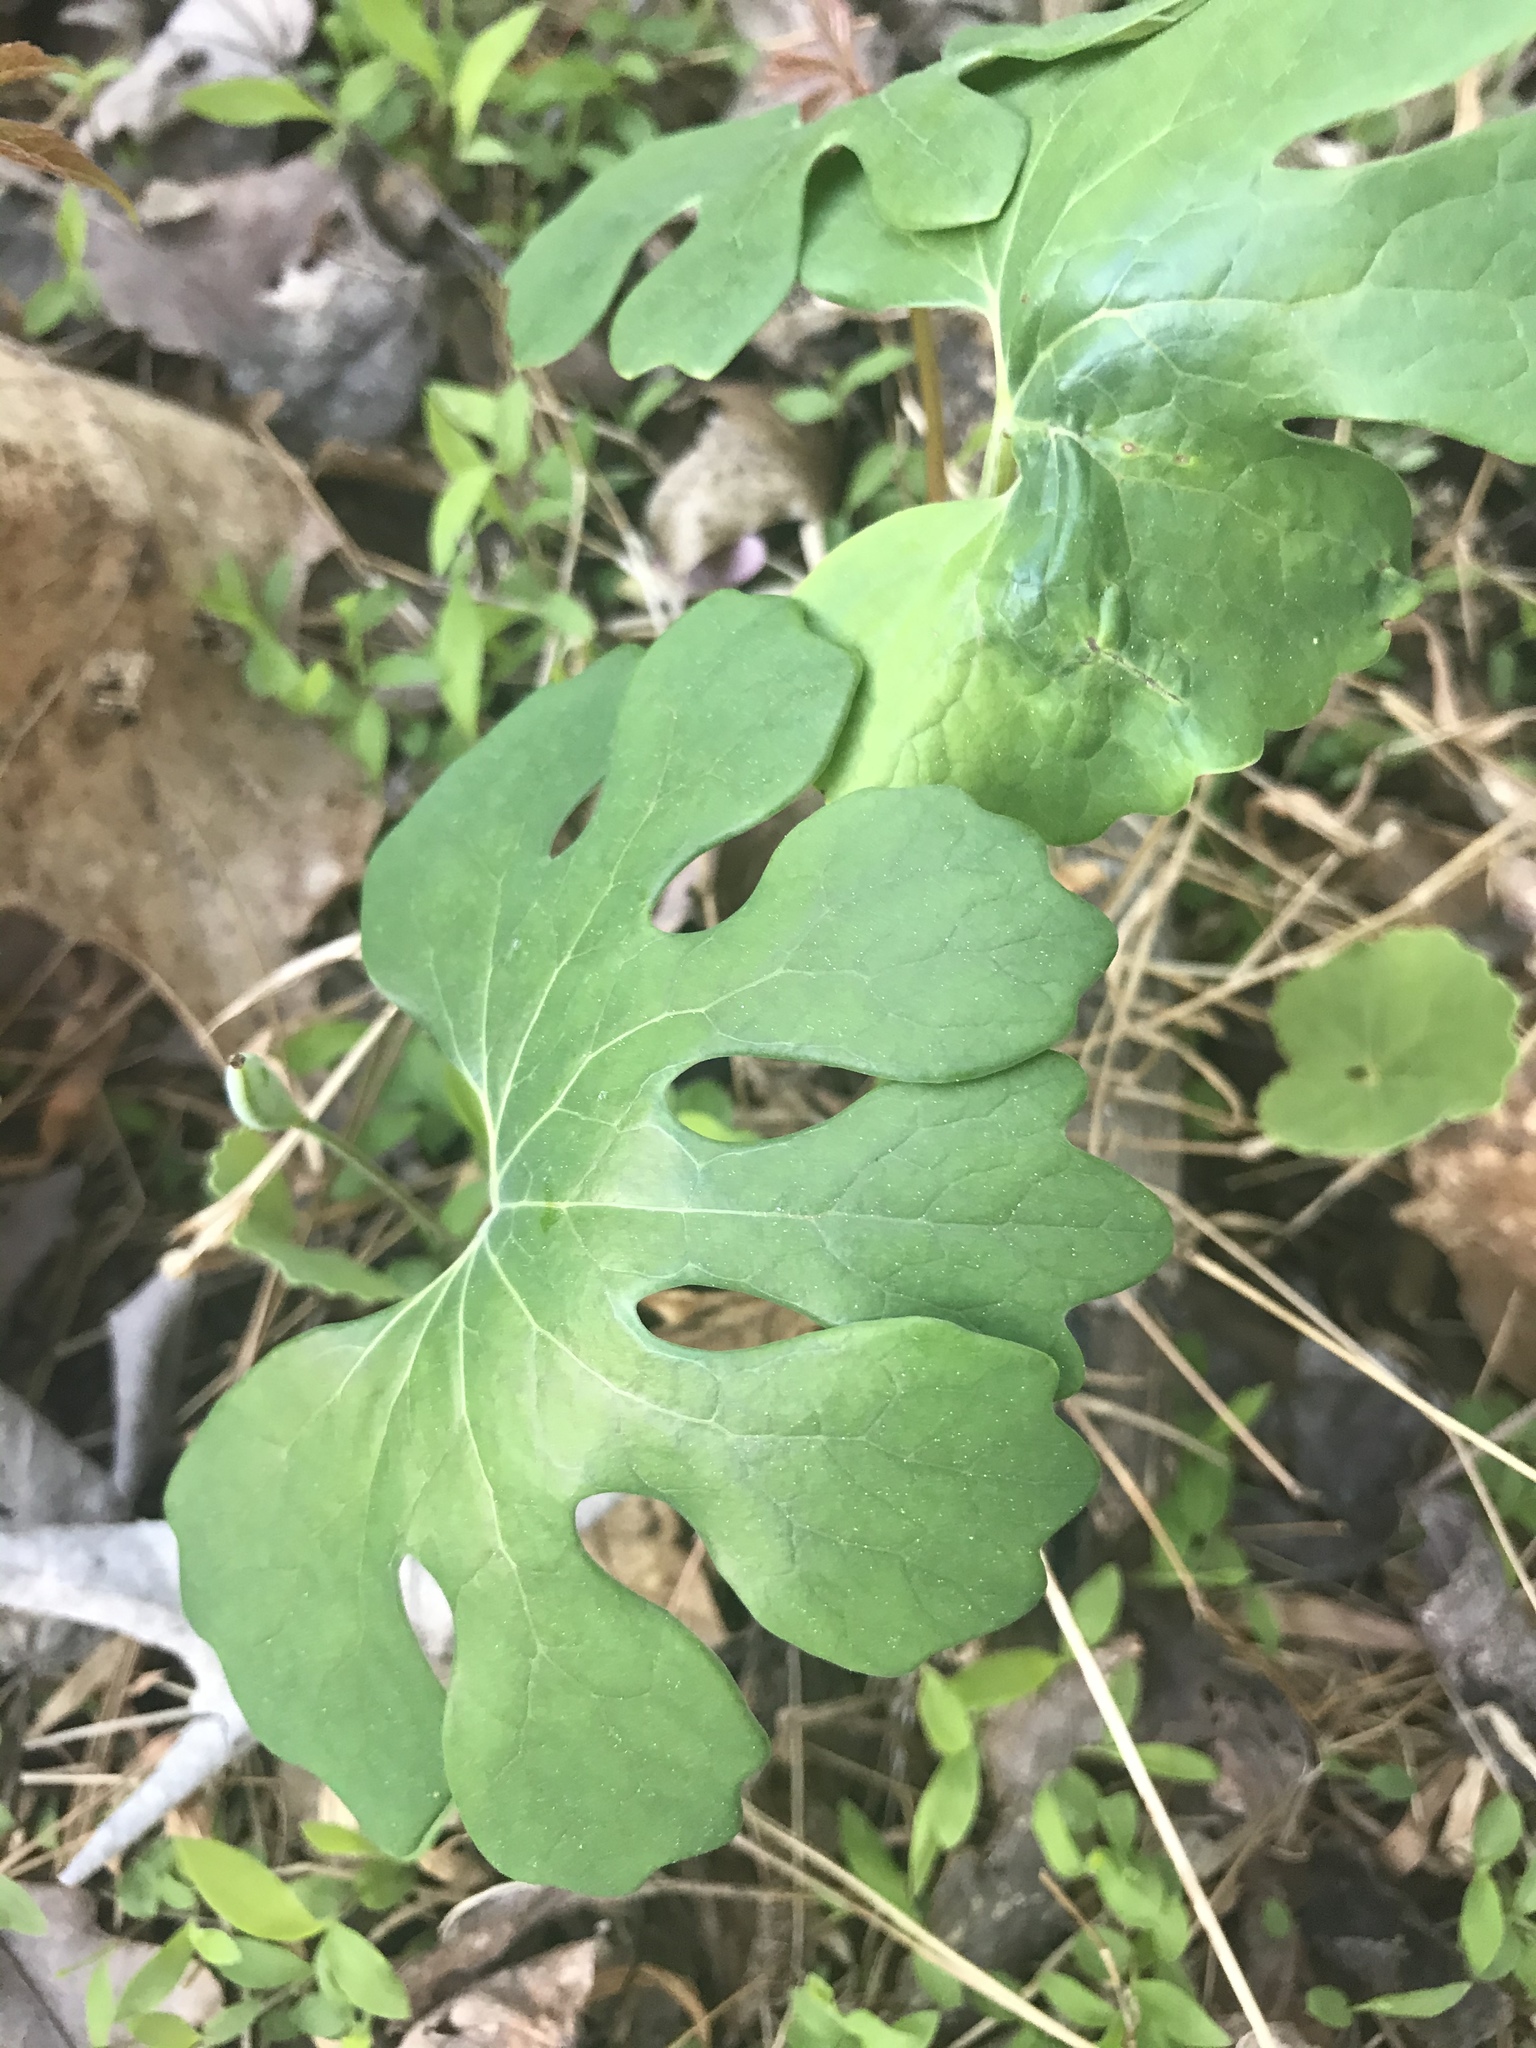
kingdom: Plantae
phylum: Tracheophyta
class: Magnoliopsida
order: Ranunculales
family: Papaveraceae
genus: Sanguinaria
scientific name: Sanguinaria canadensis
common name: Bloodroot
